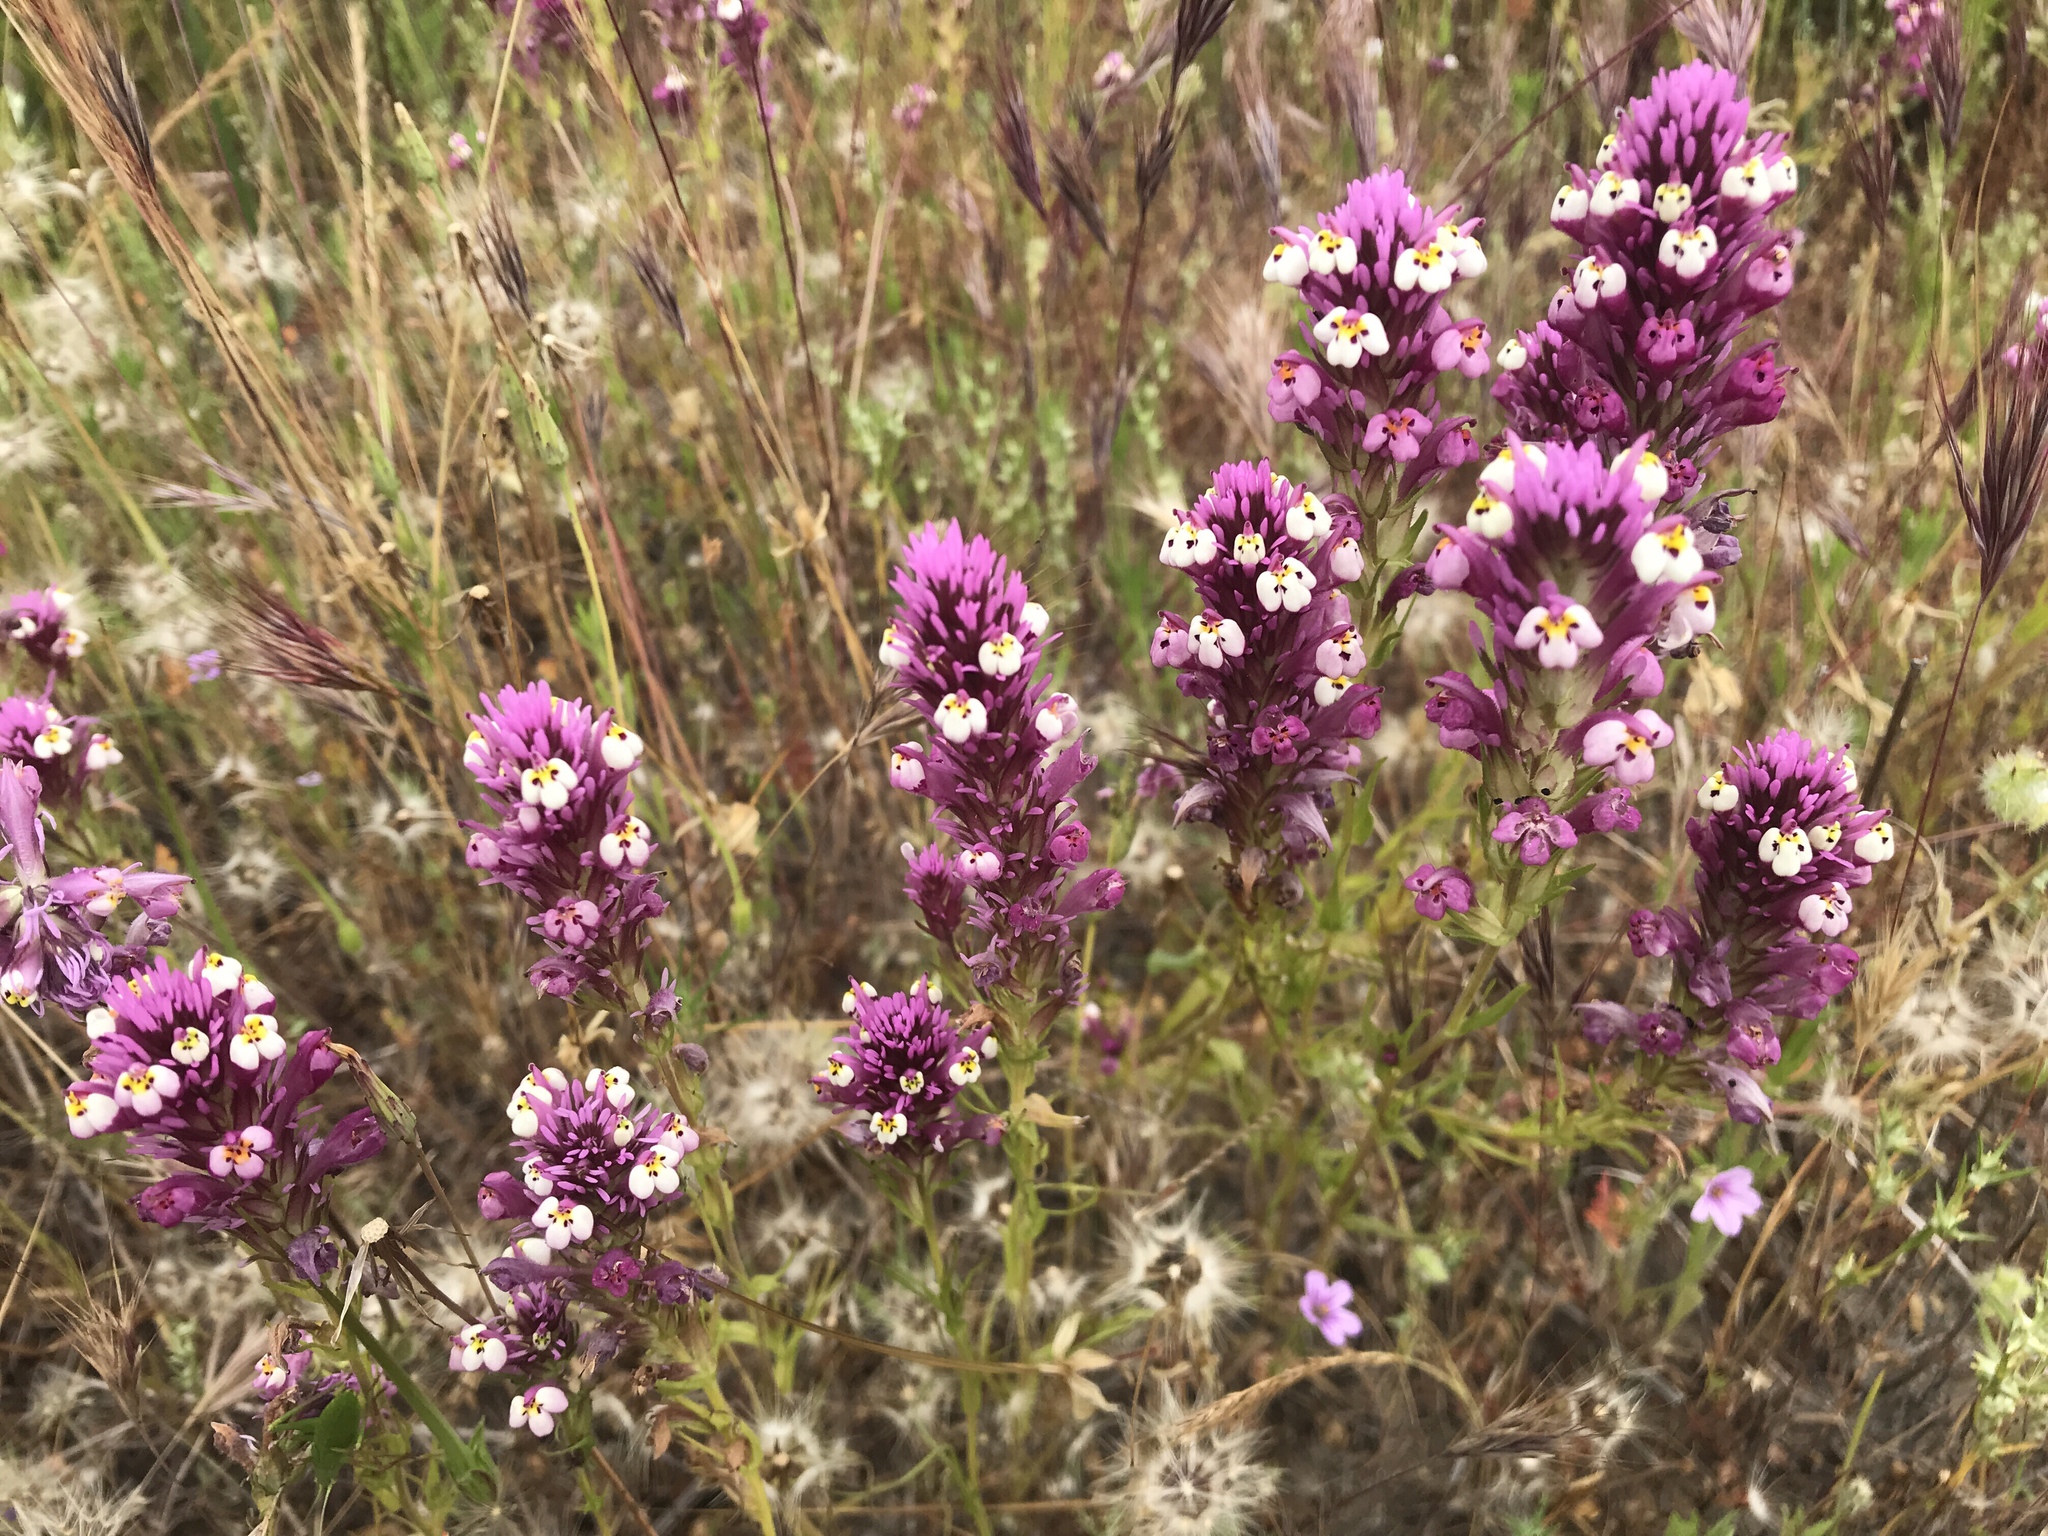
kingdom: Plantae
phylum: Tracheophyta
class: Magnoliopsida
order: Lamiales
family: Orobanchaceae
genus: Castilleja
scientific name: Castilleja densiflora
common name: Dense-flower indian paintbrush
